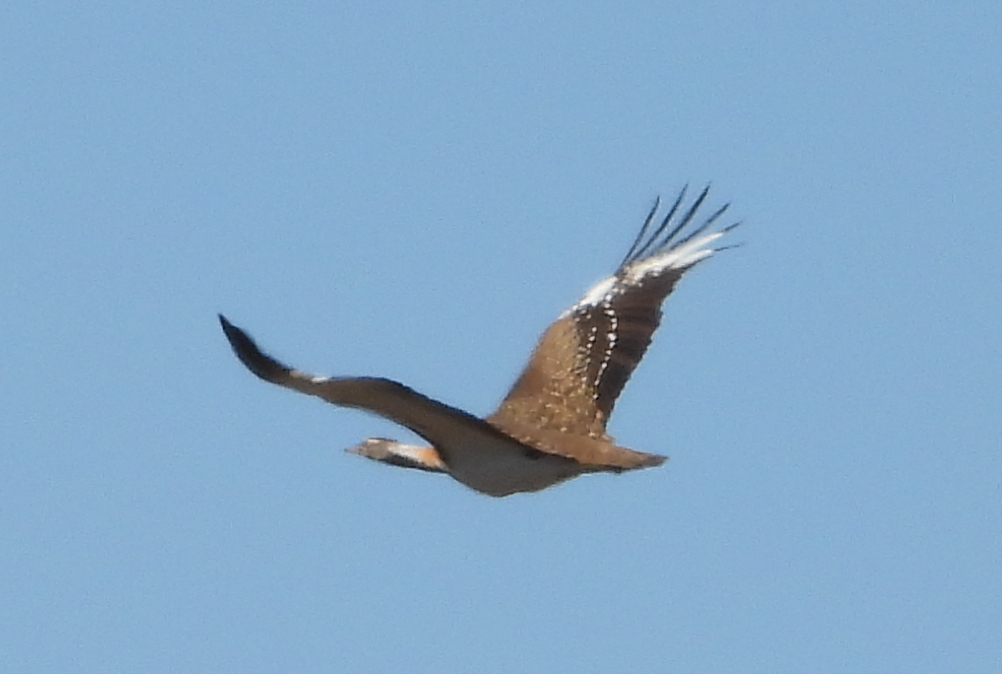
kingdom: Animalia
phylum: Chordata
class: Aves
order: Otidiformes
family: Otididae
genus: Neotis
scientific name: Neotis ludwigii
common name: Ludwig's bustard
